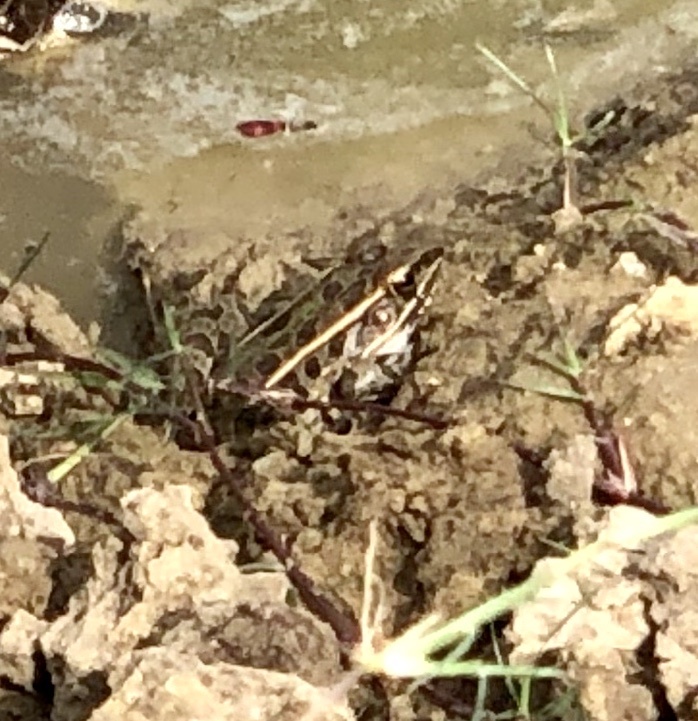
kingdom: Animalia
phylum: Chordata
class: Amphibia
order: Anura
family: Ranidae
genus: Lithobates
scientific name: Lithobates sphenocephalus
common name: Southern leopard frog
